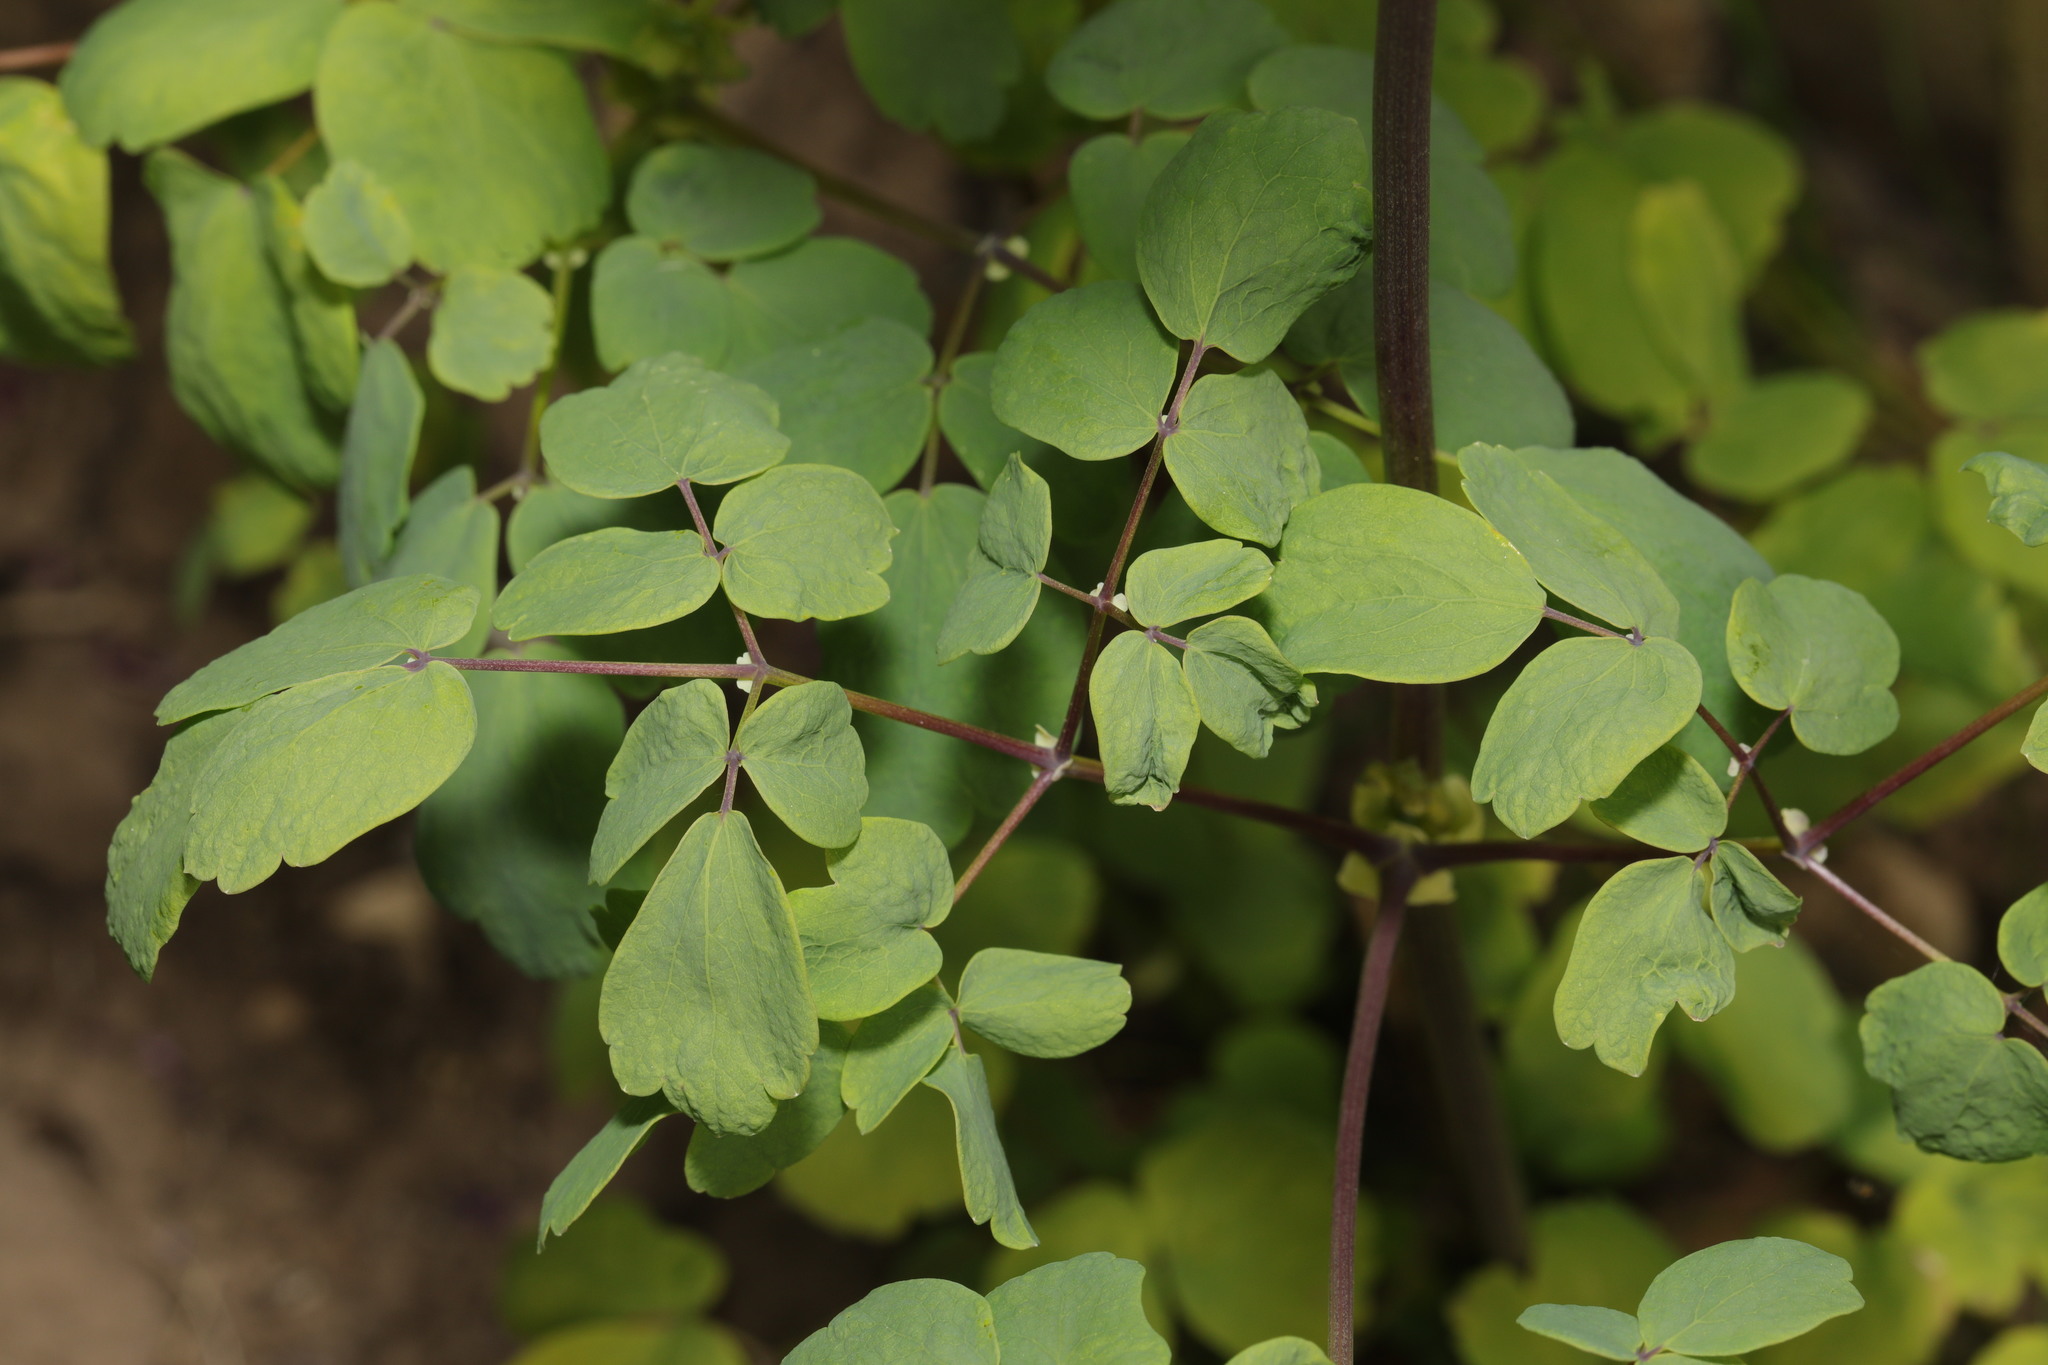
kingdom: Plantae
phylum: Tracheophyta
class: Magnoliopsida
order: Ranunculales
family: Ranunculaceae
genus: Thalictrum
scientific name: Thalictrum flavum
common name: Common meadow-rue
